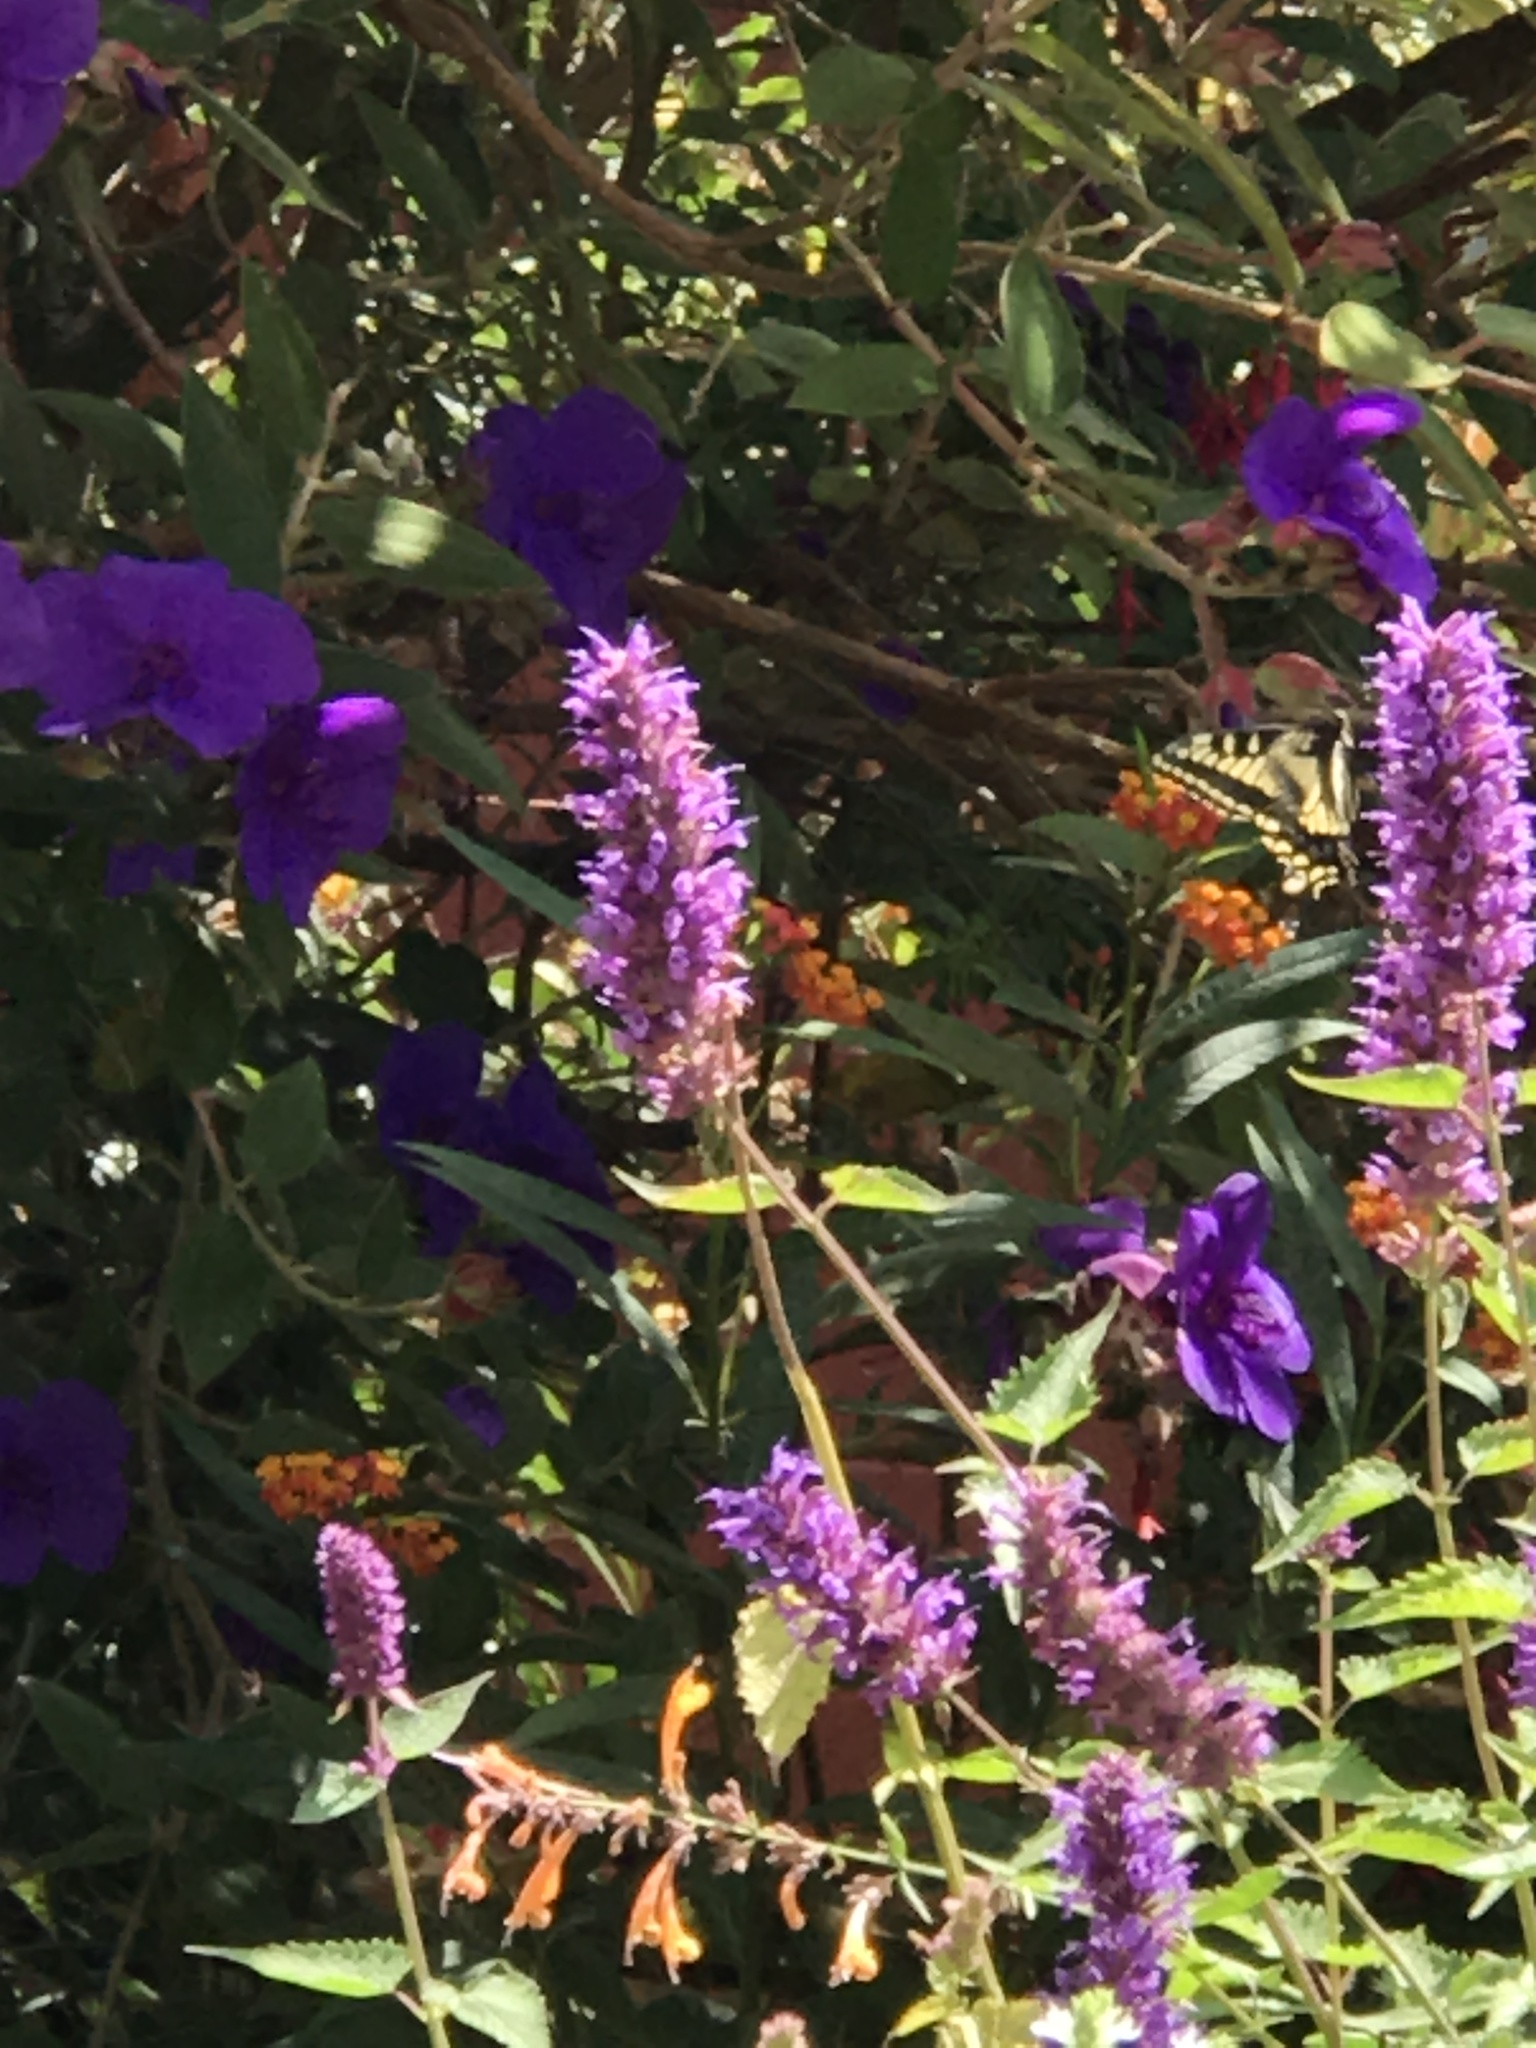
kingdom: Animalia
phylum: Arthropoda
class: Insecta
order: Lepidoptera
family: Papilionidae
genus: Papilio
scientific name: Papilio zelicaon
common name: Anise swallowtail
